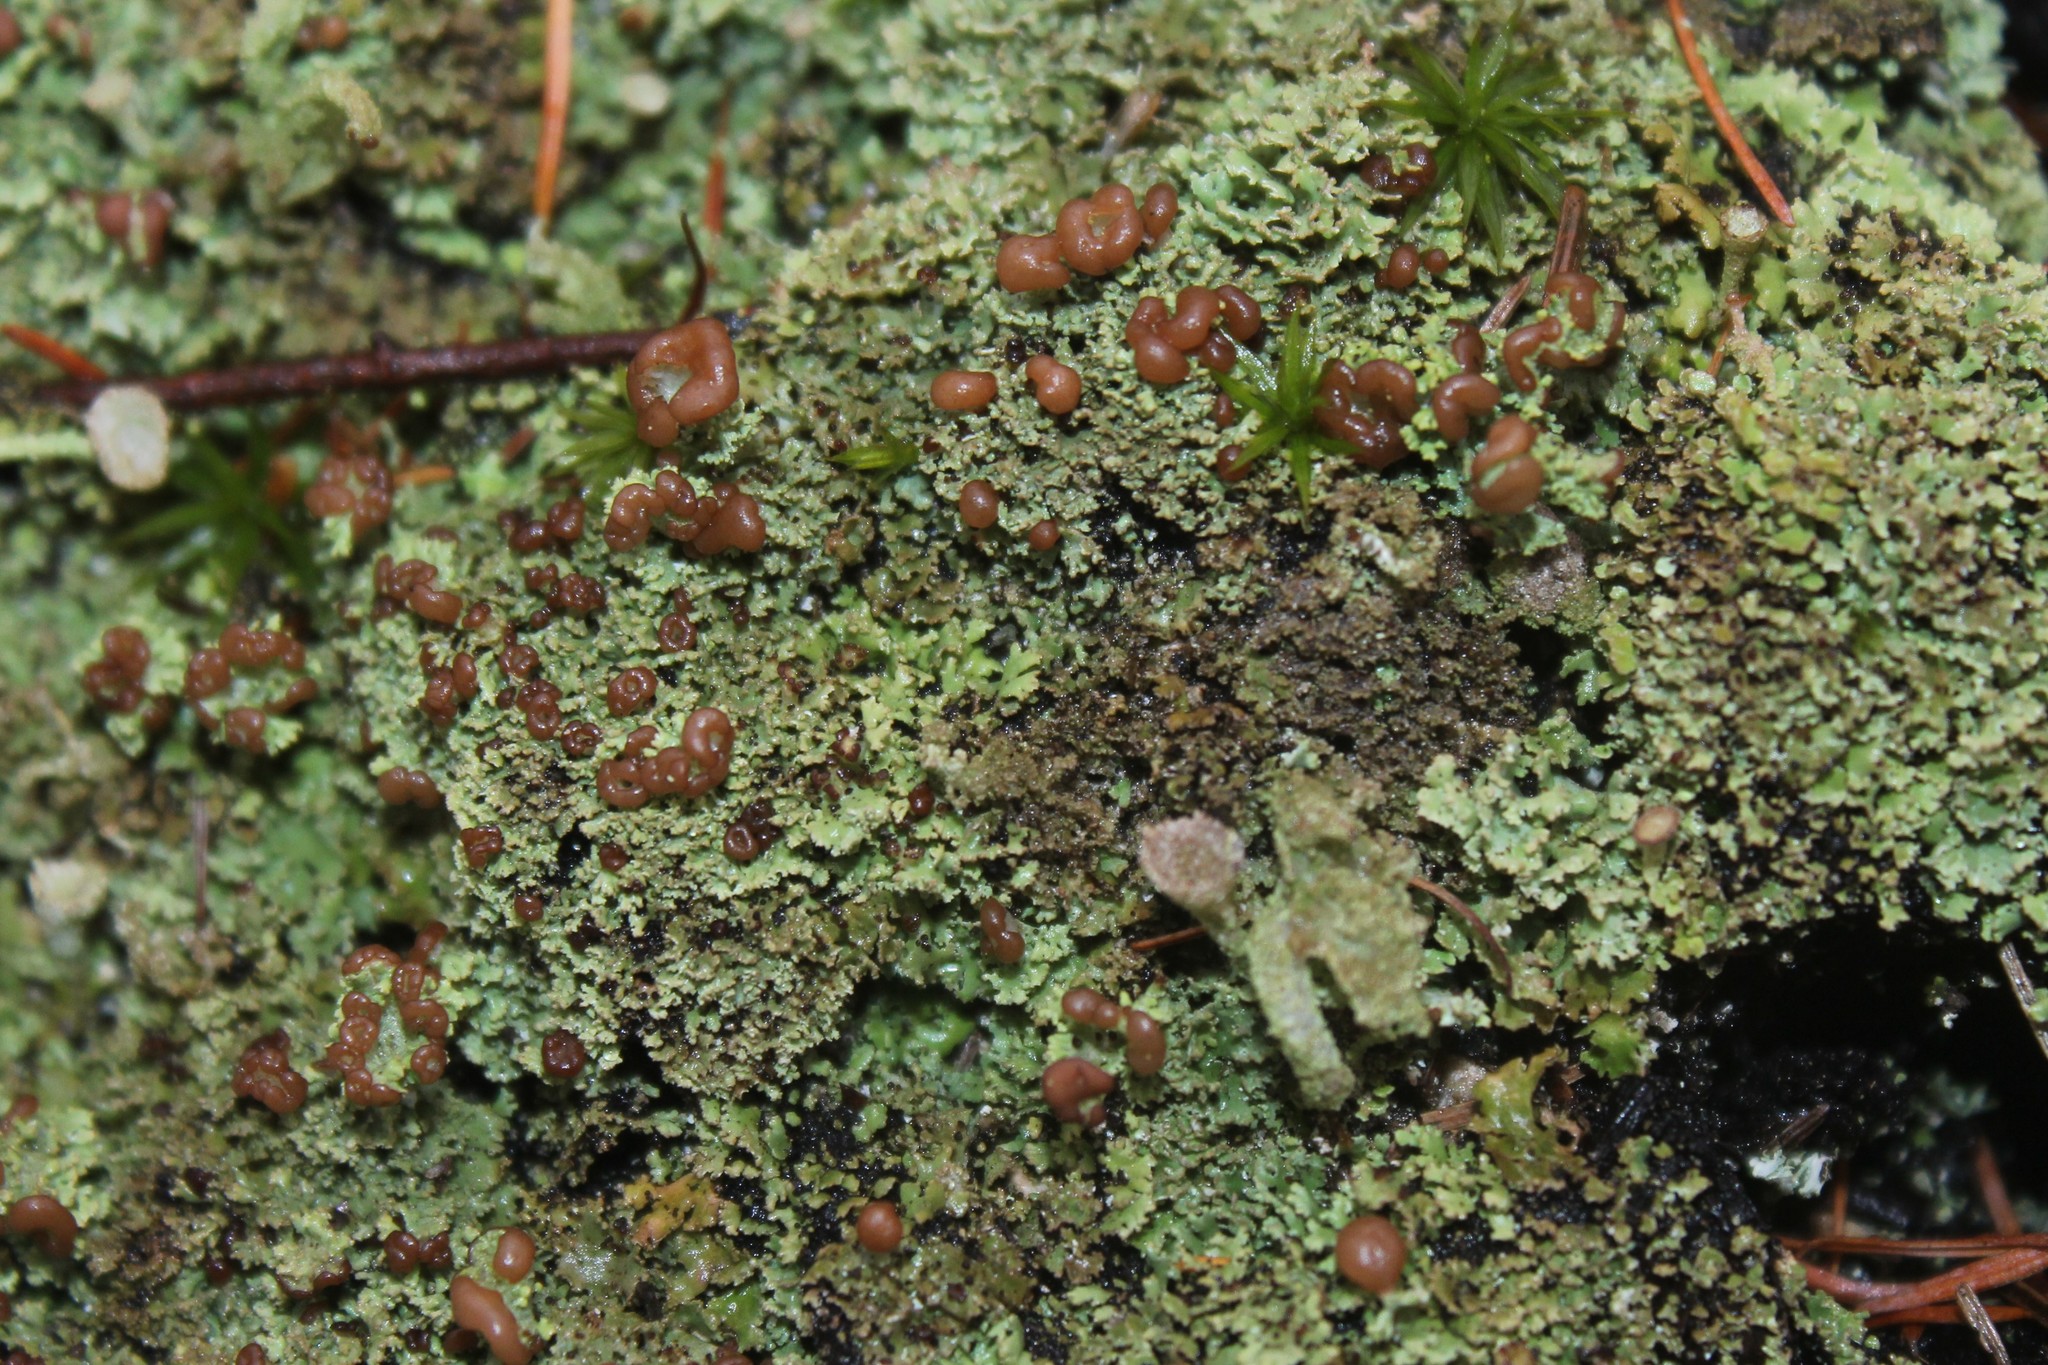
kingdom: Fungi
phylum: Ascomycota
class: Lecanoromycetes
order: Lecanorales
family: Cladoniaceae
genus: Cladonia
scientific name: Cladonia caespiticia
